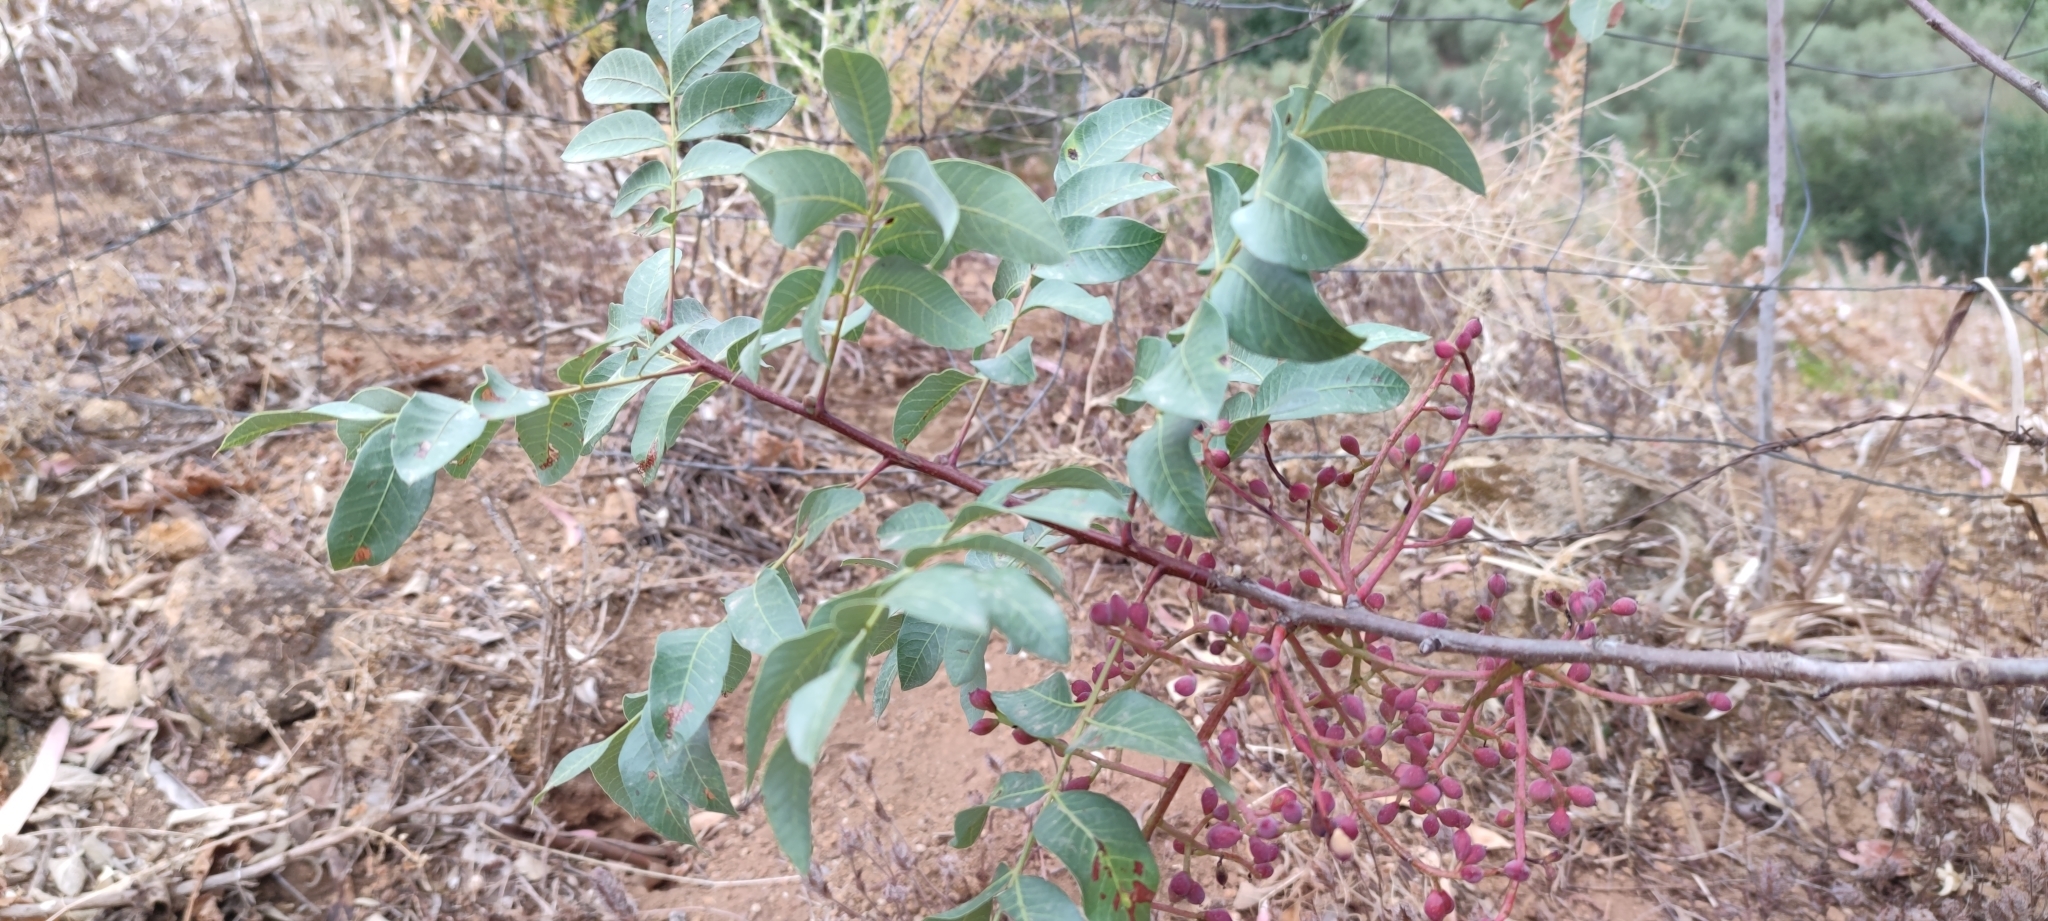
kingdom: Plantae
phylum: Tracheophyta
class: Magnoliopsida
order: Sapindales
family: Anacardiaceae
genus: Pistacia
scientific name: Pistacia terebinthus
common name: Terebinth
